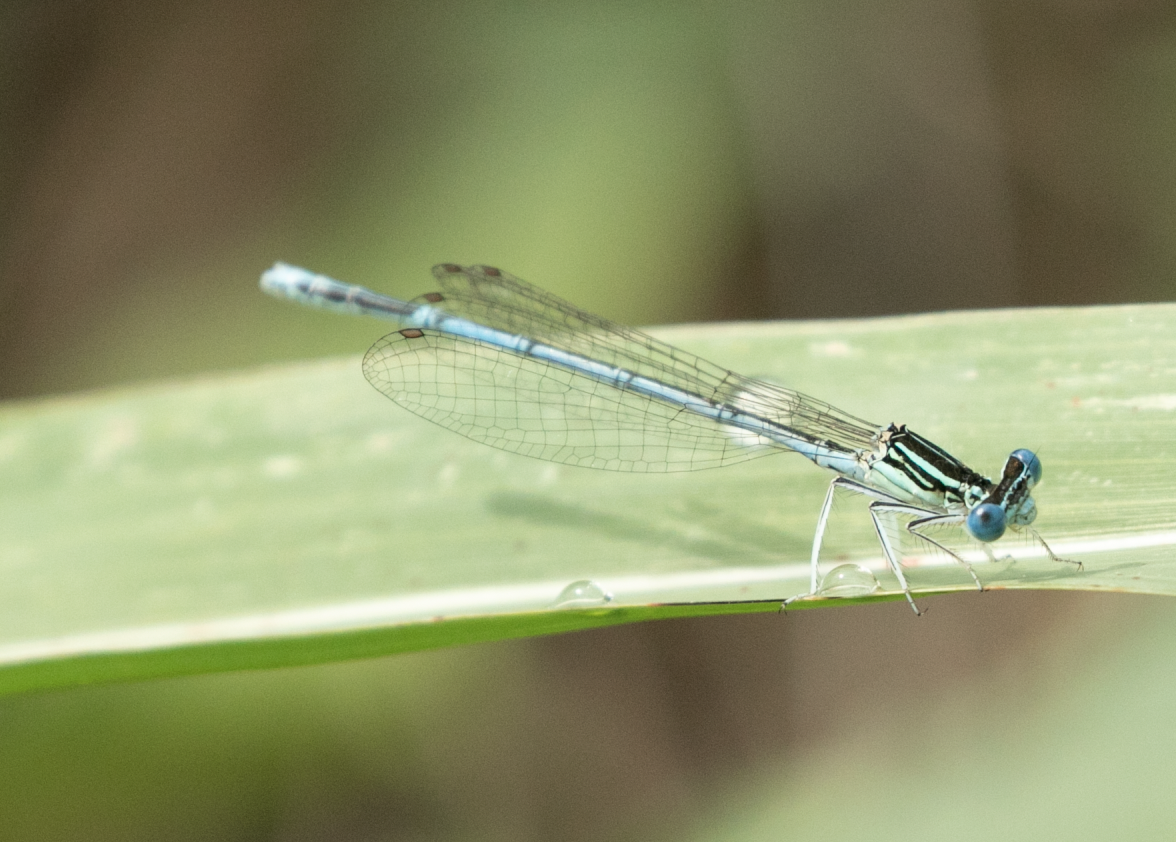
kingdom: Animalia
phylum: Arthropoda
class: Insecta
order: Odonata
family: Platycnemididae
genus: Platycnemis
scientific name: Platycnemis pennipes
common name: White-legged damselfly
